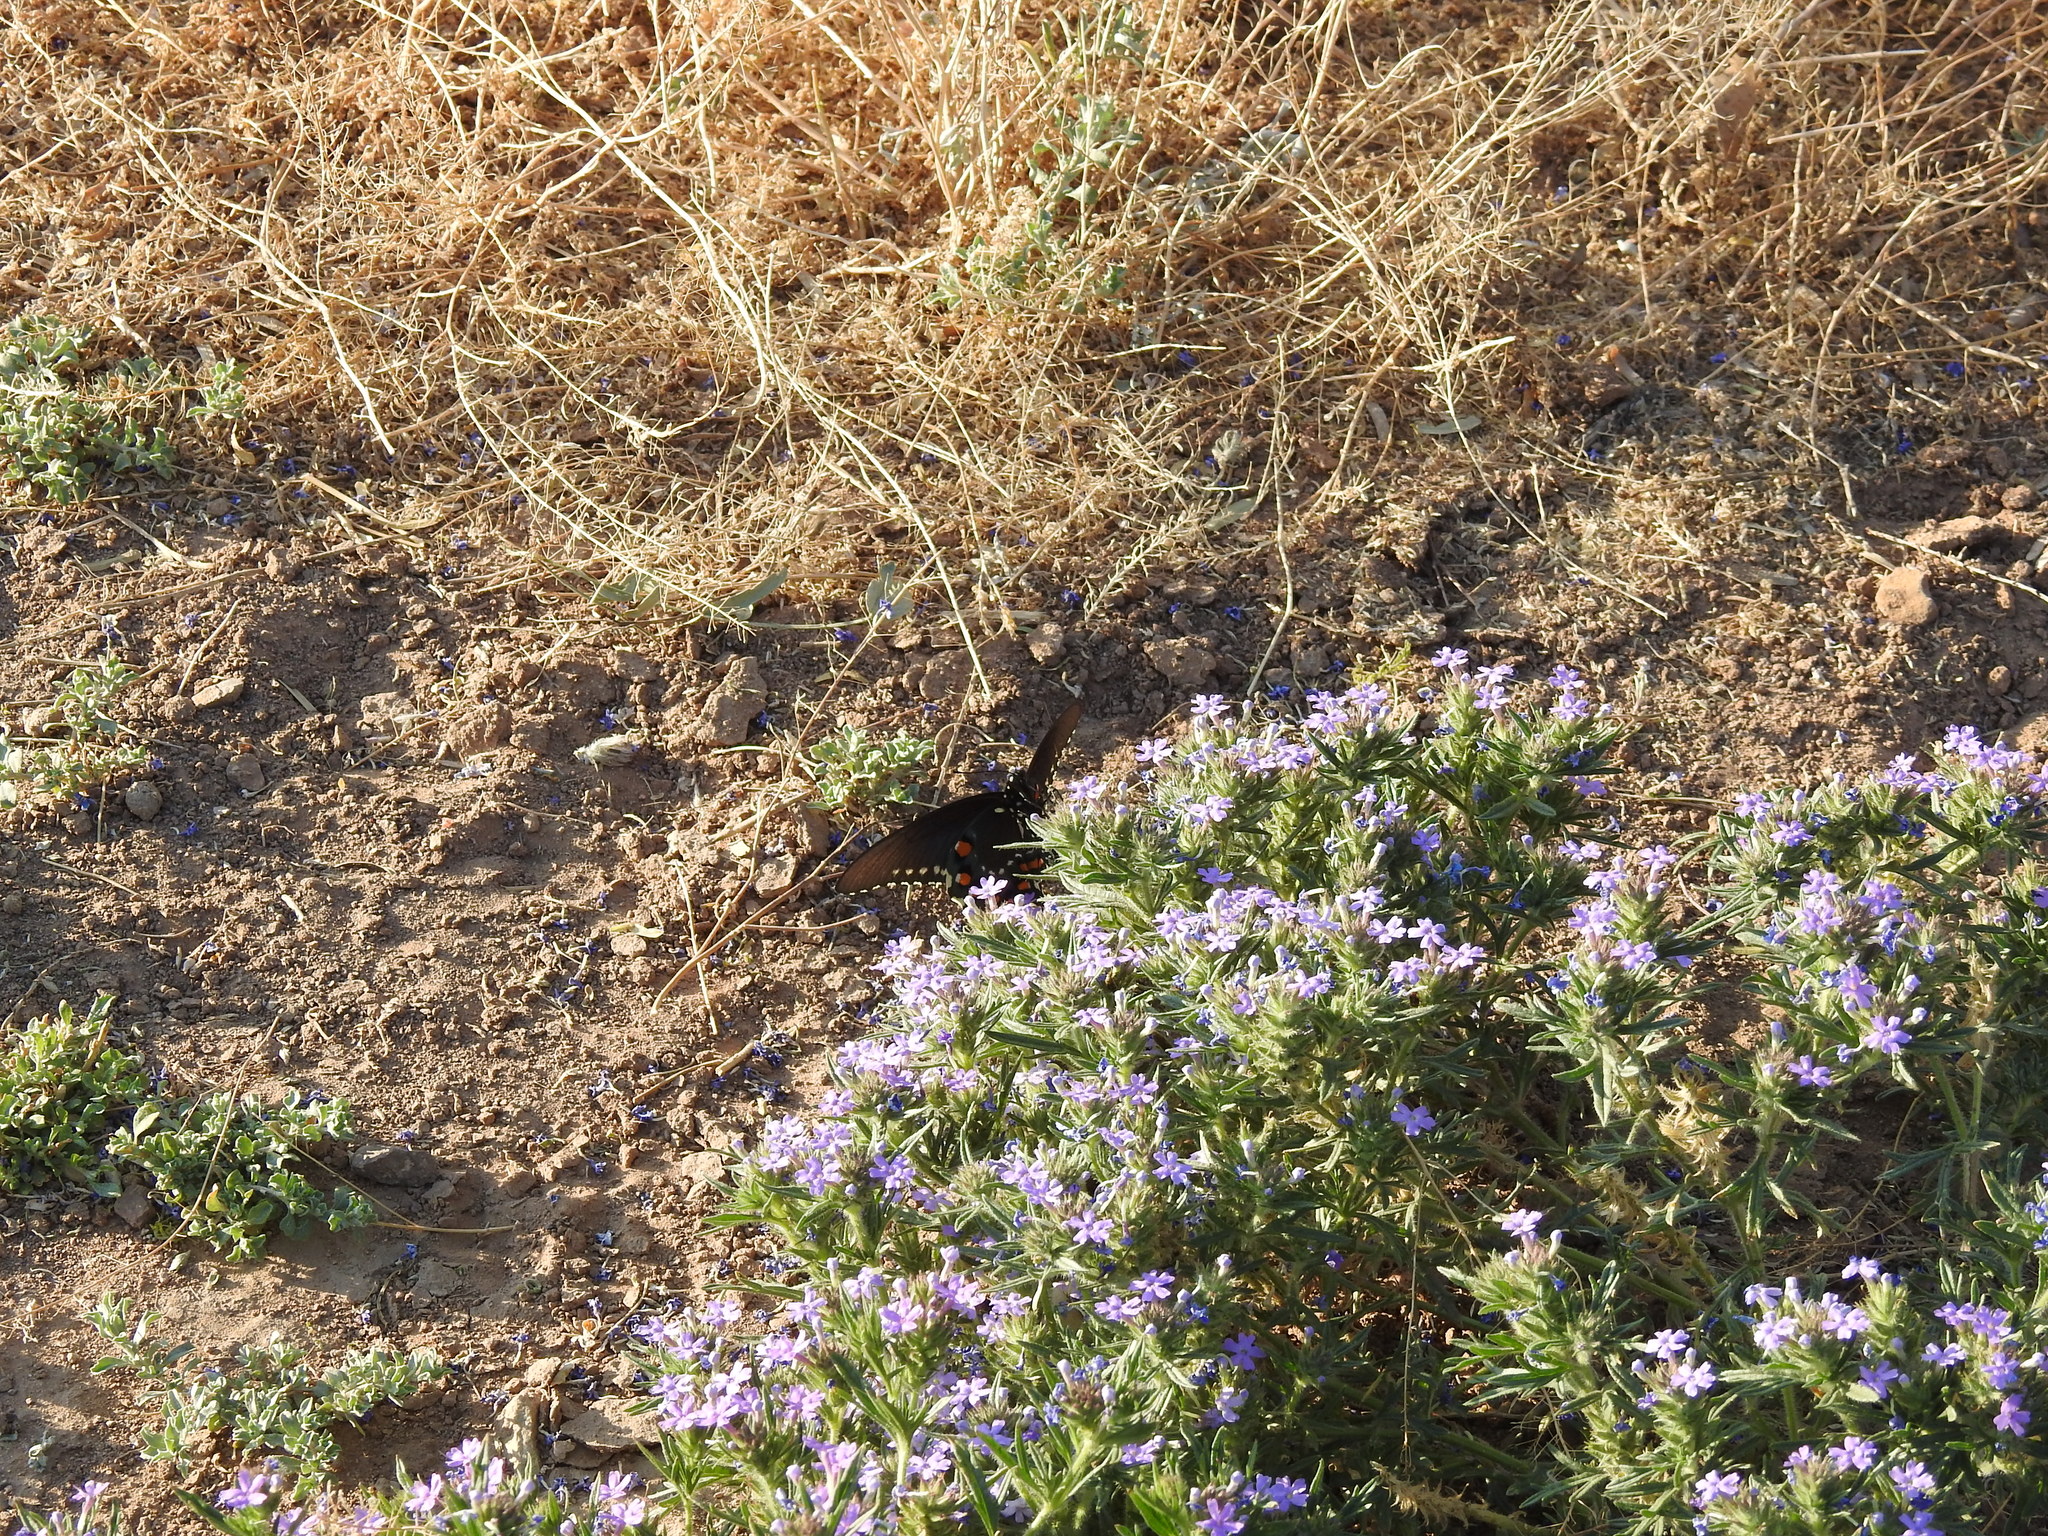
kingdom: Animalia
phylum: Arthropoda
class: Insecta
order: Lepidoptera
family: Papilionidae
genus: Battus
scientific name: Battus philenor
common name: Pipevine swallowtail
